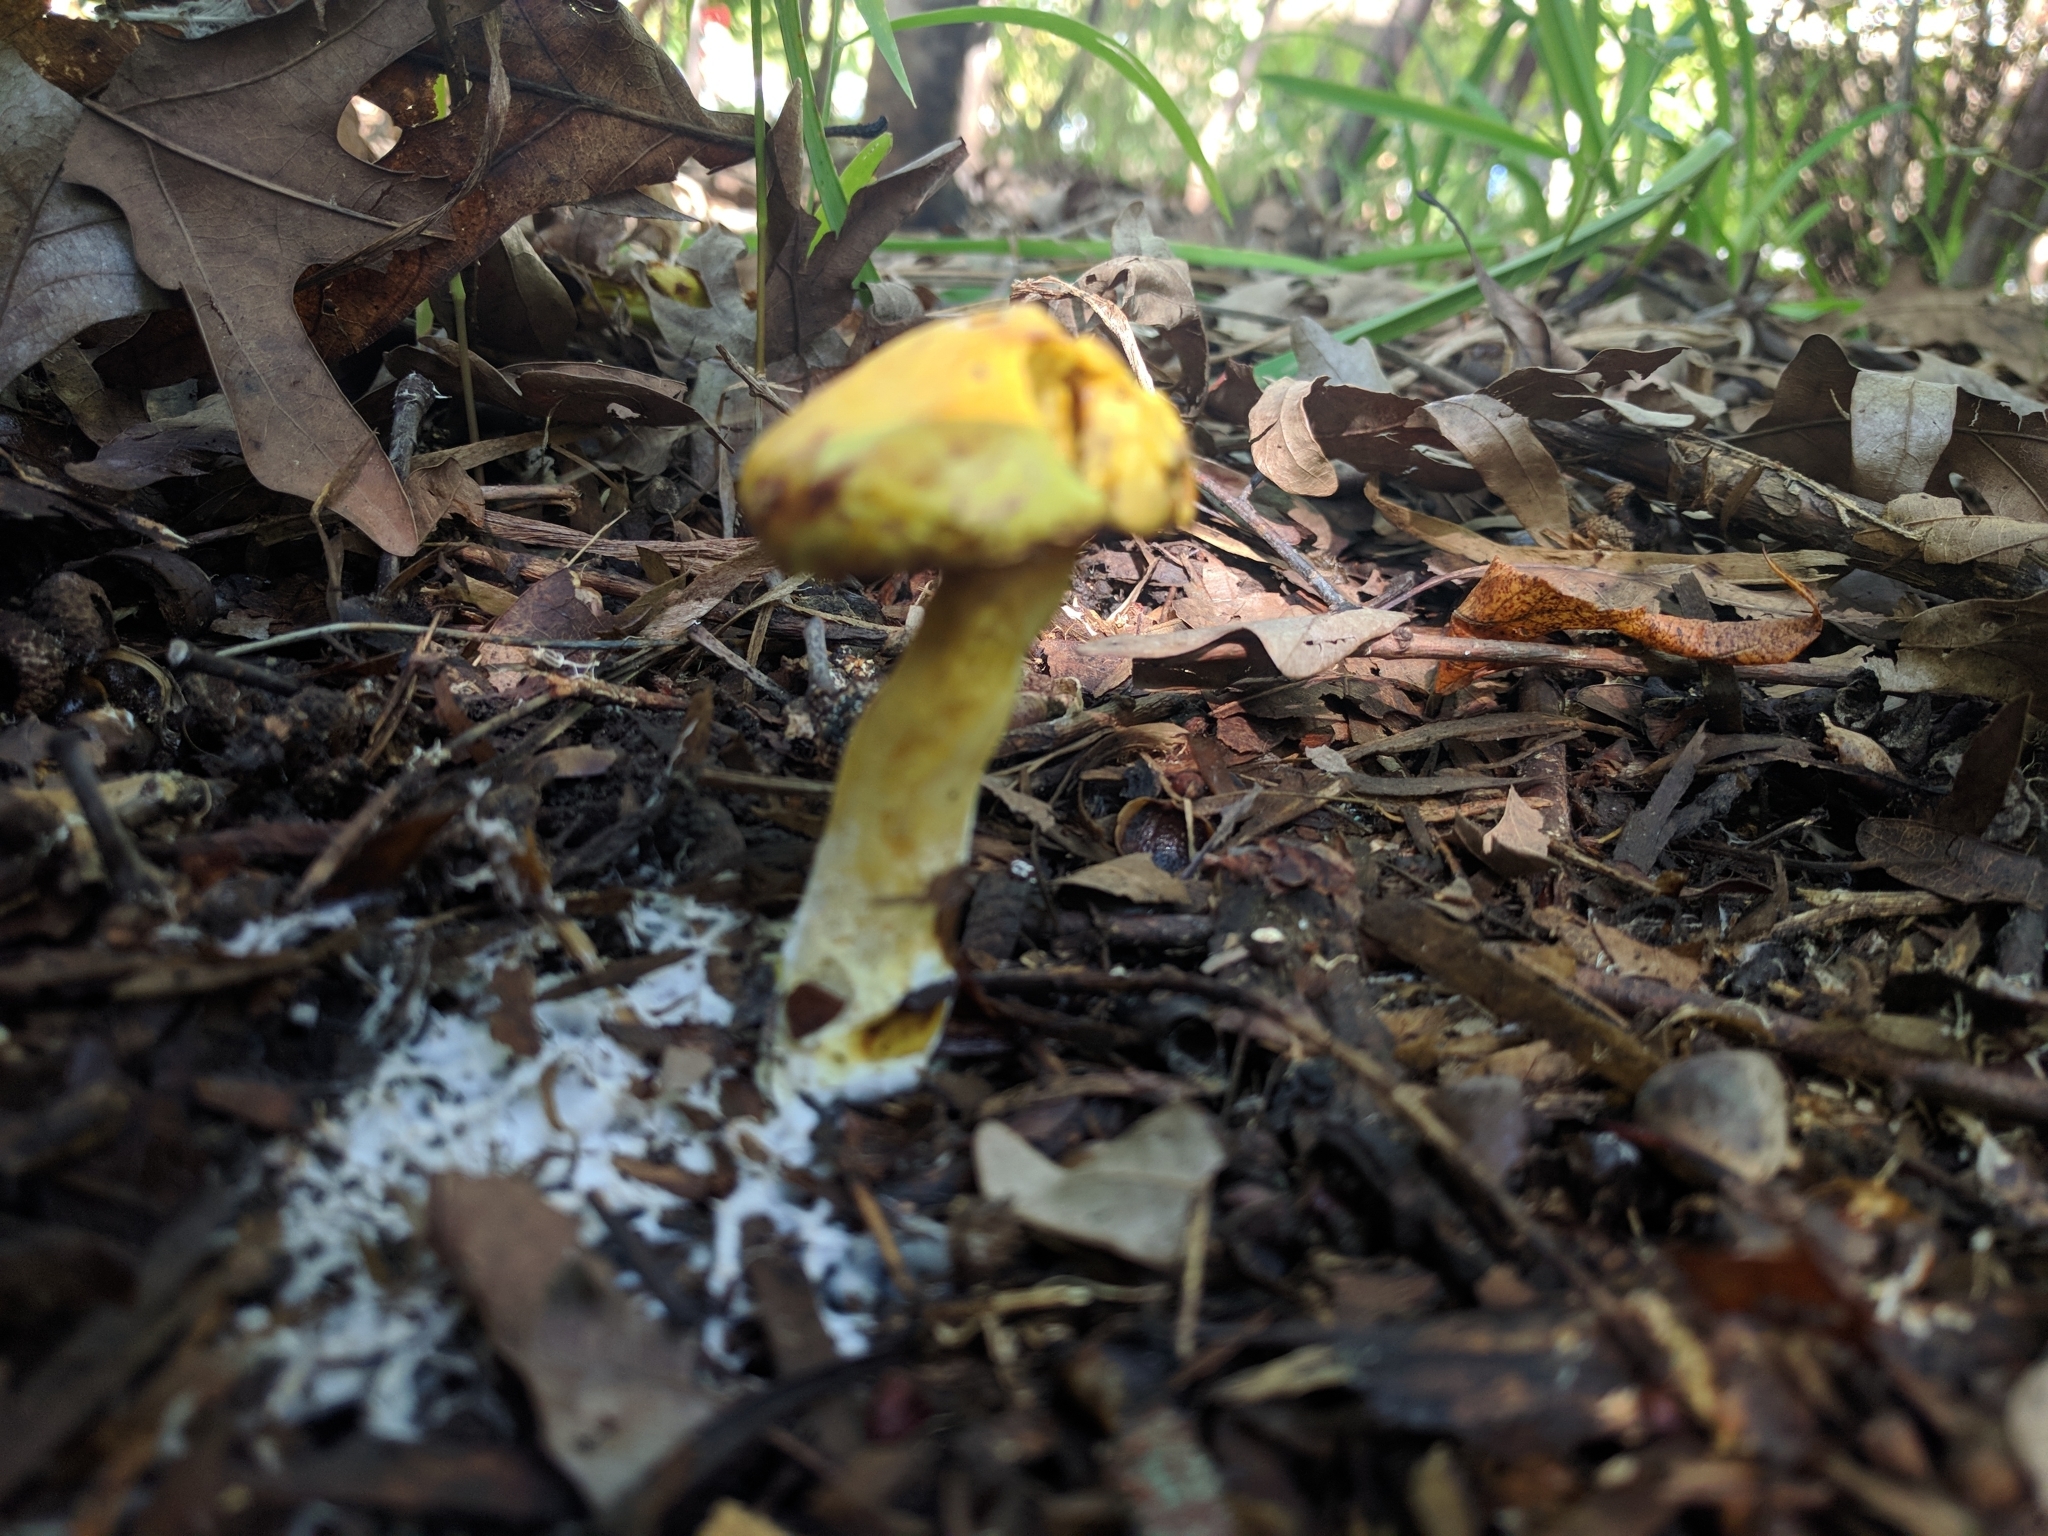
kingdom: Fungi
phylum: Basidiomycota
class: Agaricomycetes
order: Boletales
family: Suillaceae
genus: Suillus
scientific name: Suillus americanus
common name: Chicken fat mushroom
